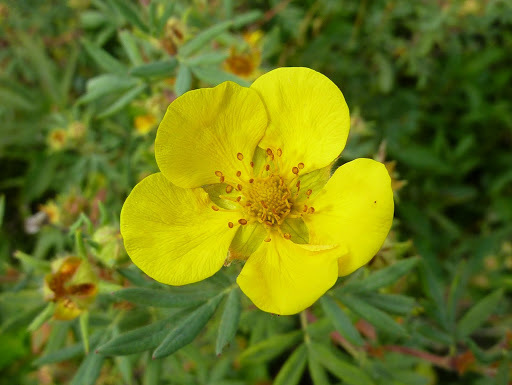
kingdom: Plantae
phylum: Tracheophyta
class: Magnoliopsida
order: Rosales
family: Rosaceae
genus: Dasiphora
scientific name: Dasiphora fruticosa
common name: Shrubby cinquefoil
